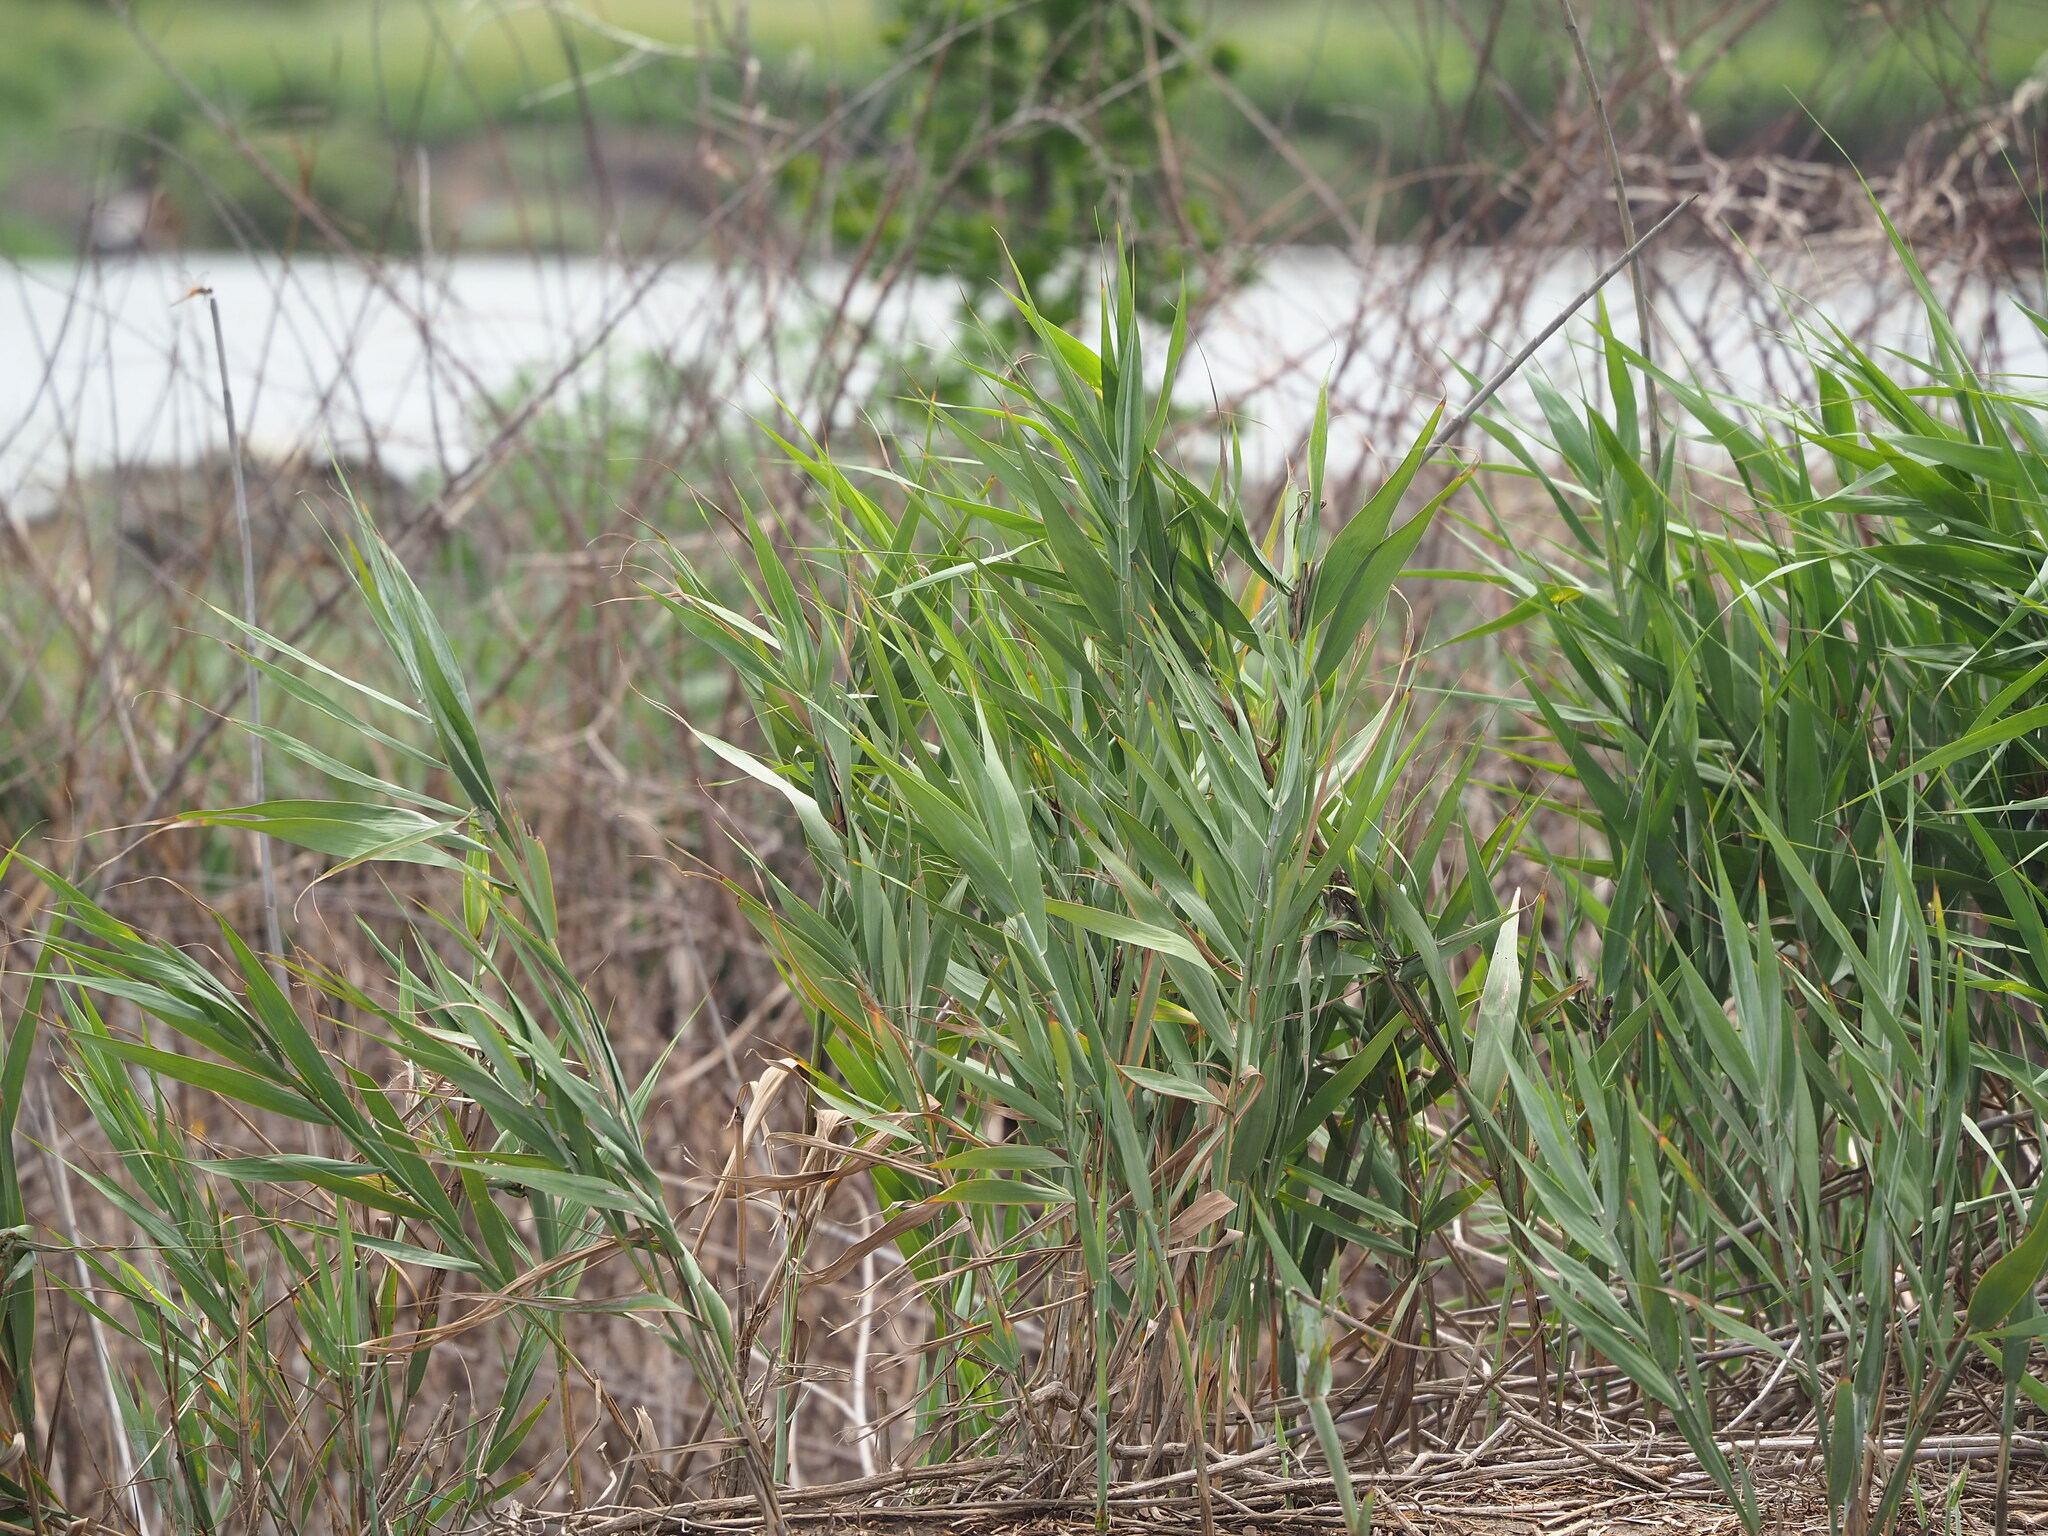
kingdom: Plantae
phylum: Tracheophyta
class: Liliopsida
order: Poales
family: Poaceae
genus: Phragmites
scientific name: Phragmites australis
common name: Common reed
